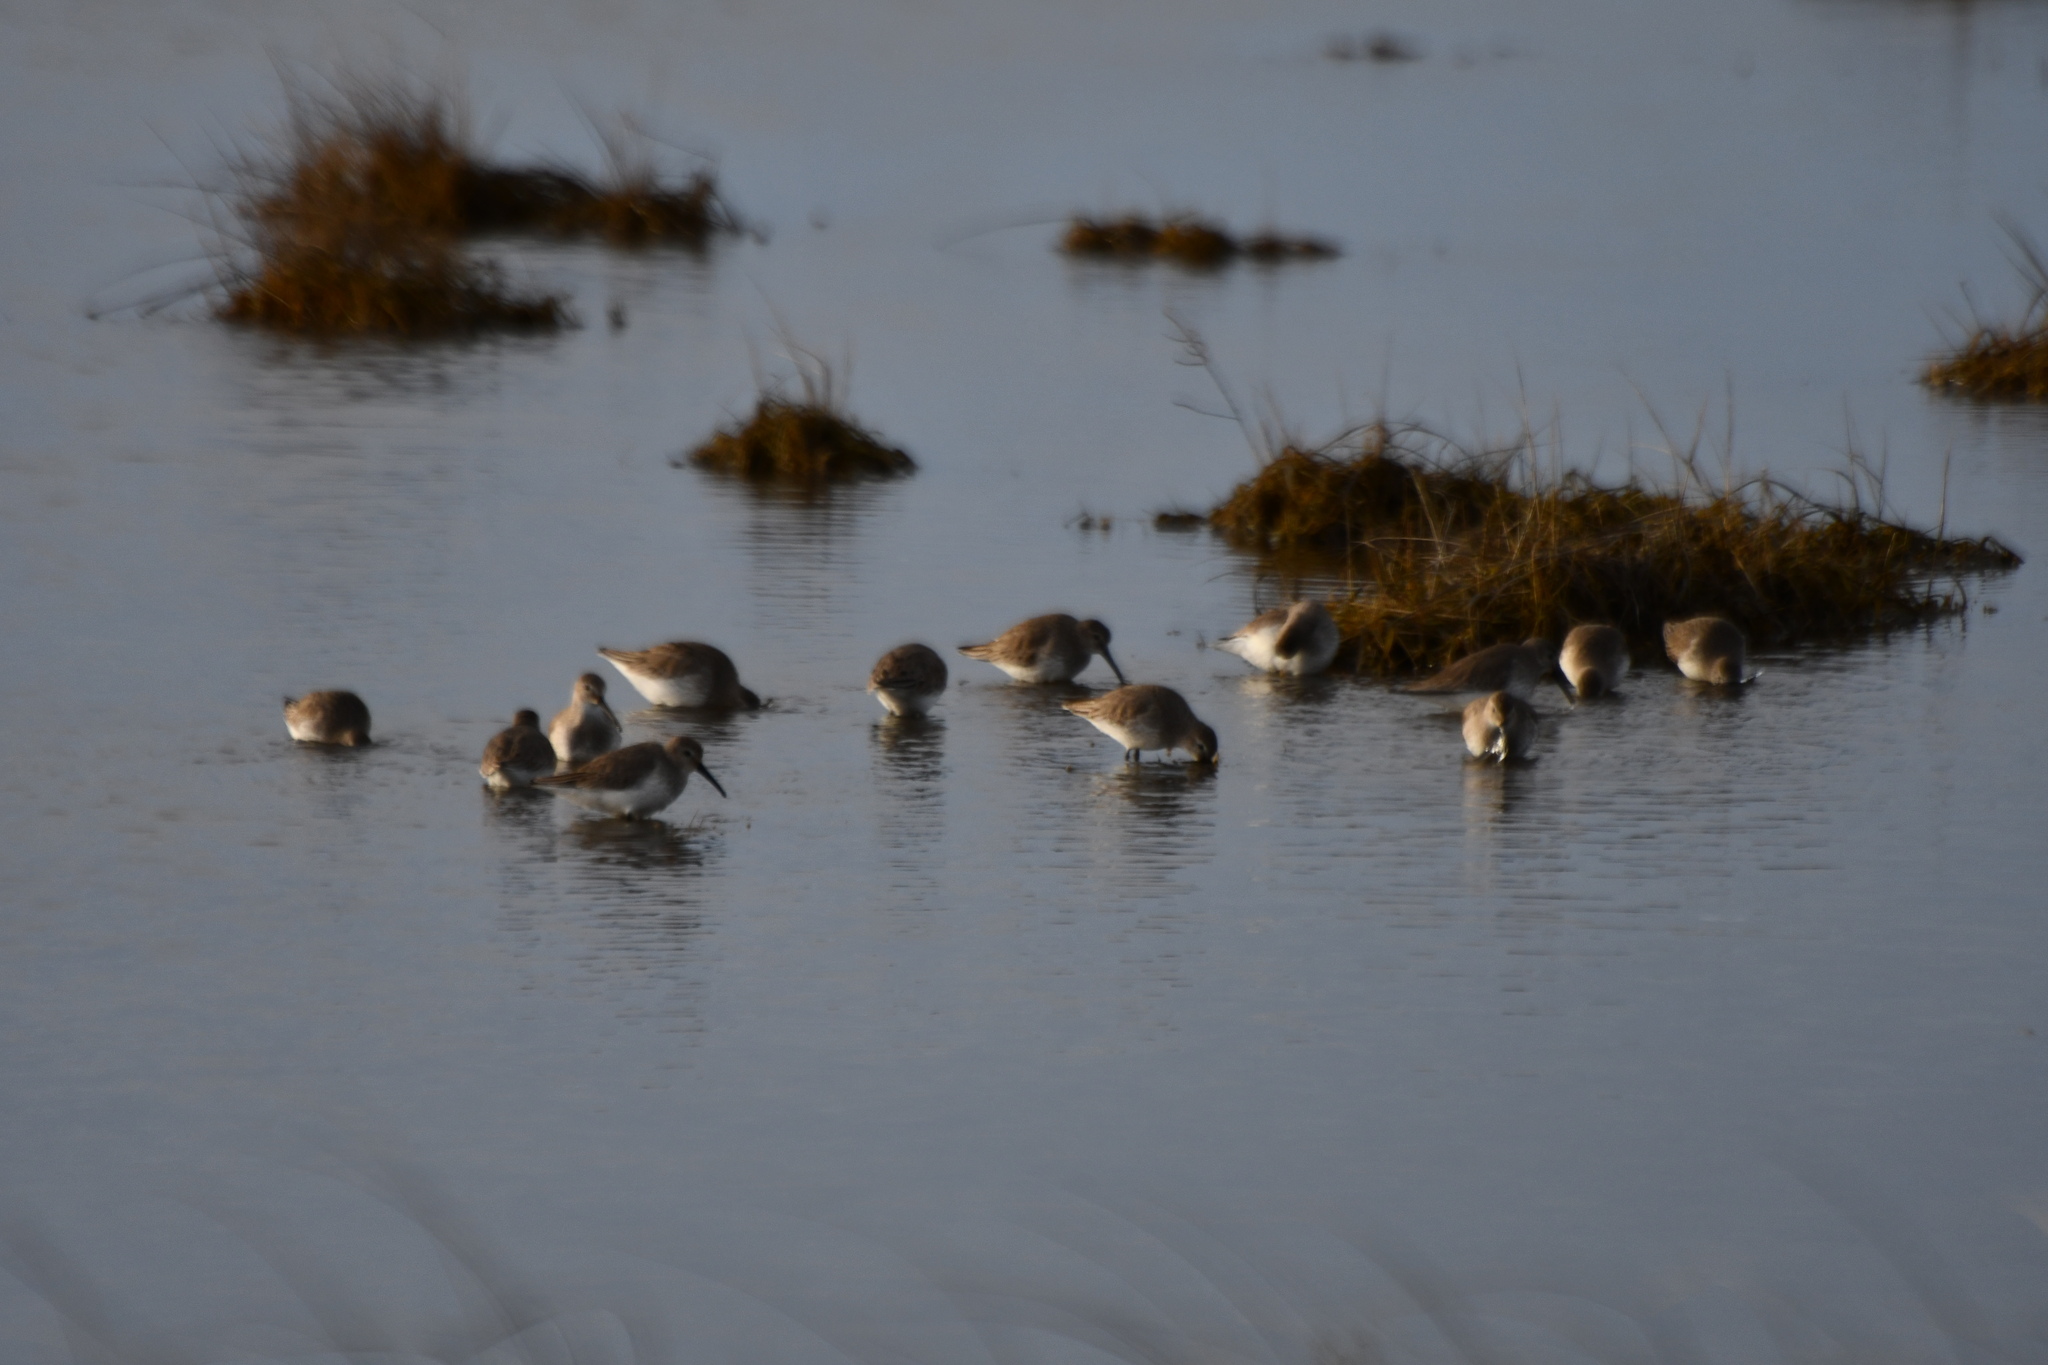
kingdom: Animalia
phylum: Chordata
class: Aves
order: Charadriiformes
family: Scolopacidae
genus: Calidris
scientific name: Calidris alpina
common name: Dunlin
